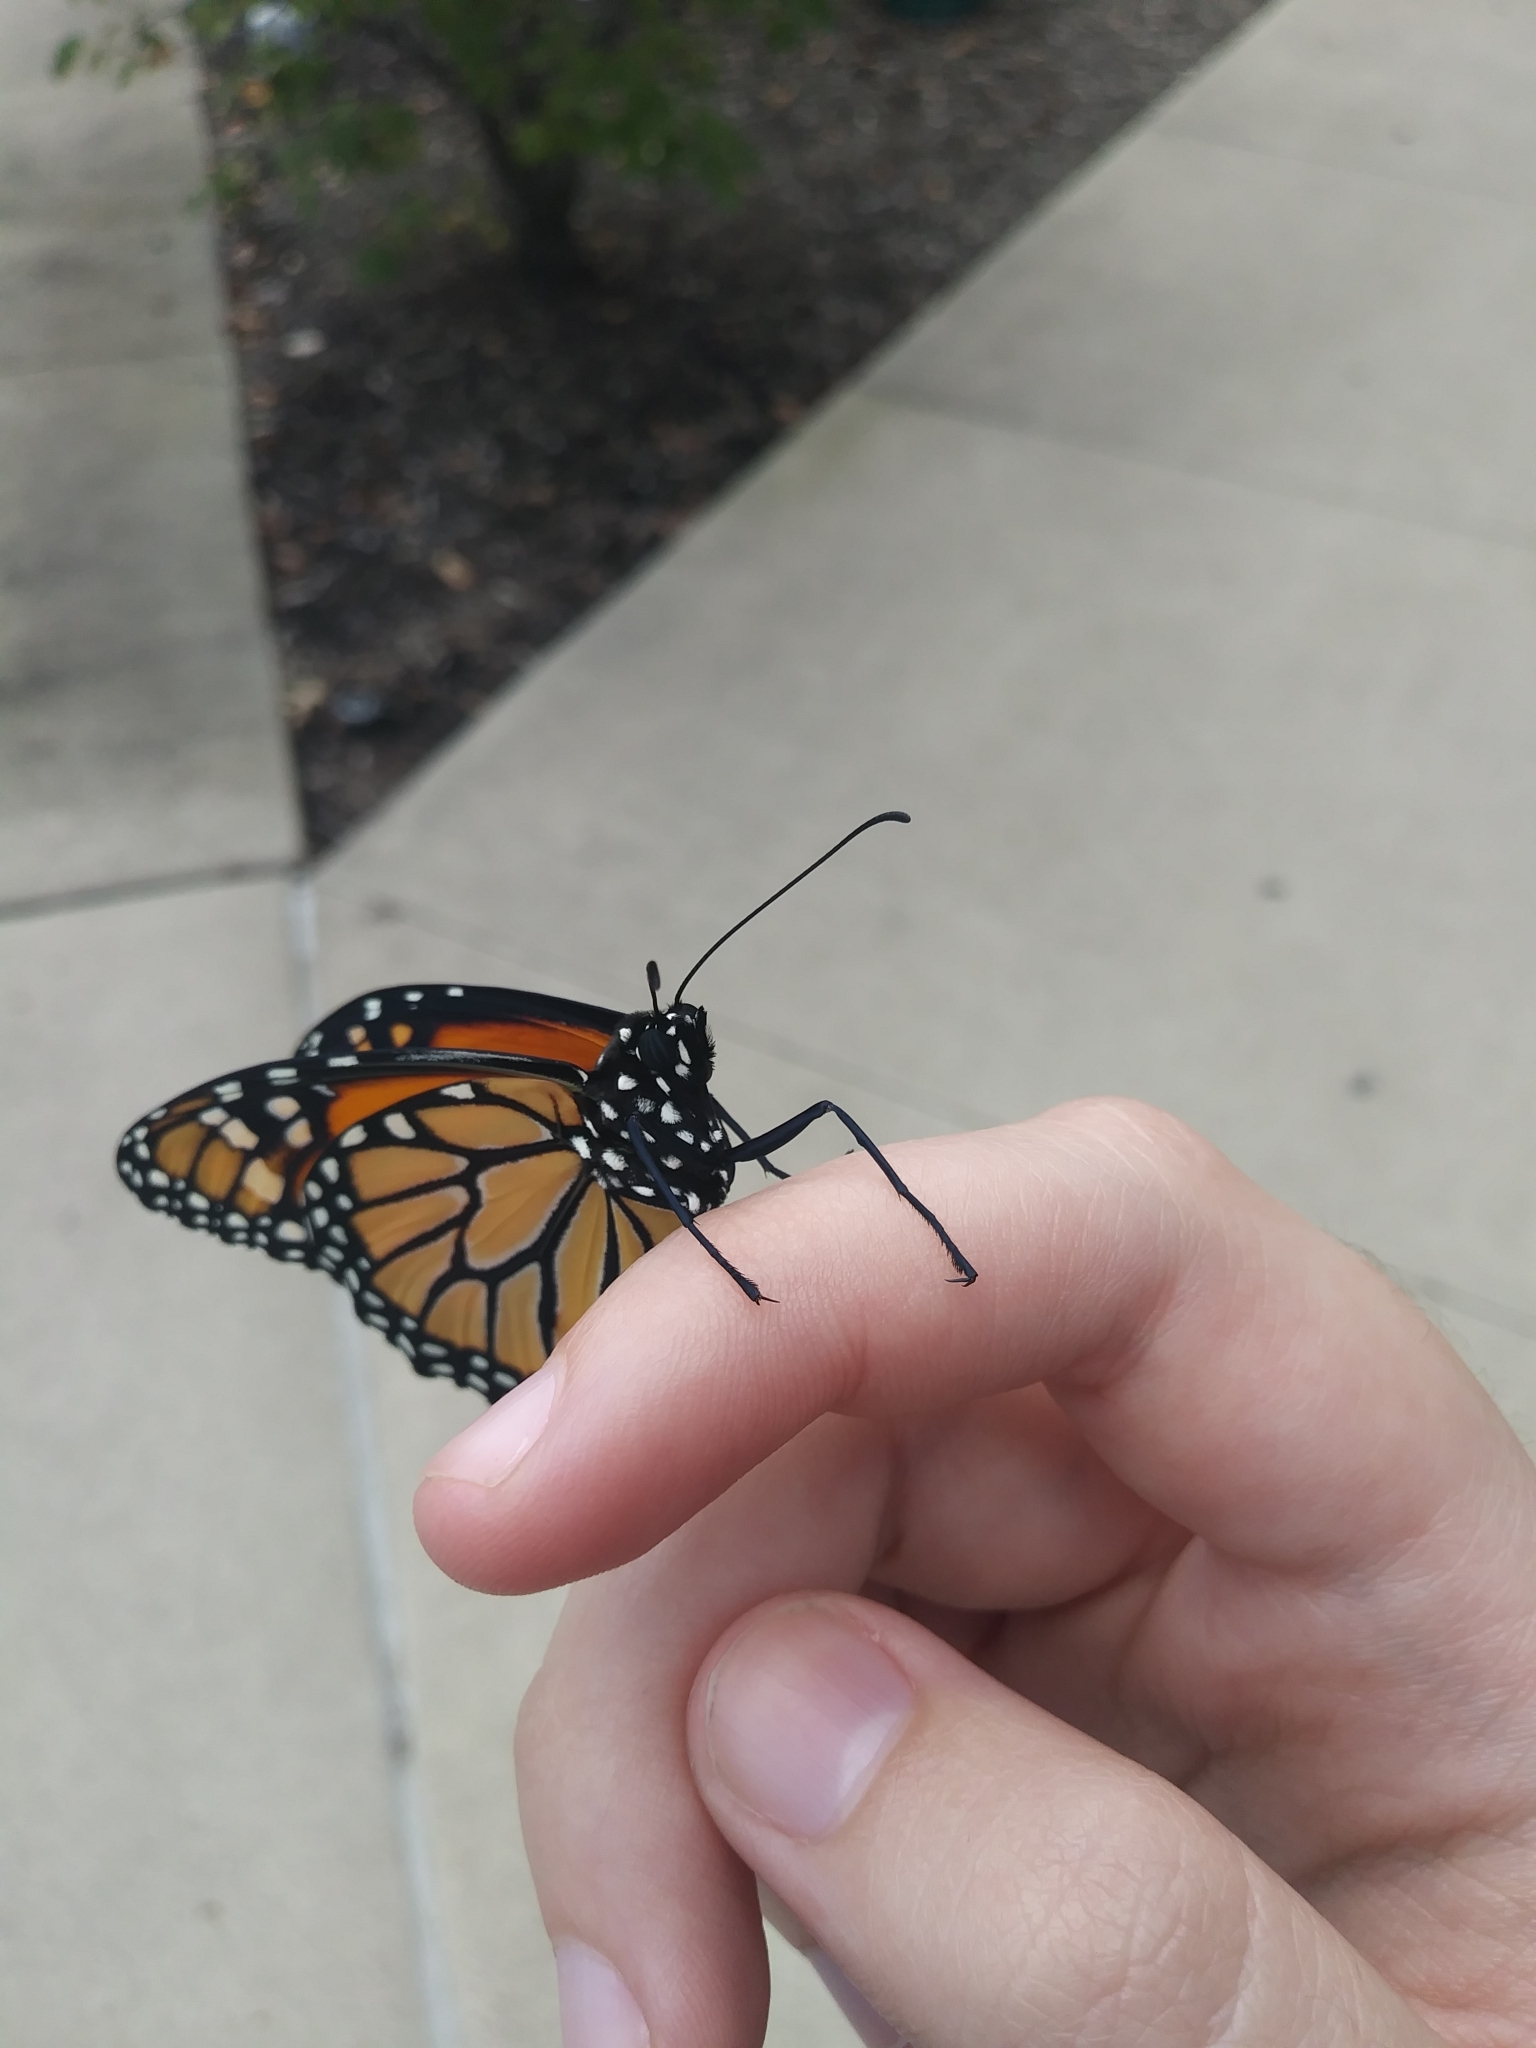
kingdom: Animalia
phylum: Arthropoda
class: Insecta
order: Lepidoptera
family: Nymphalidae
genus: Danaus
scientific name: Danaus plexippus
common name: Monarch
